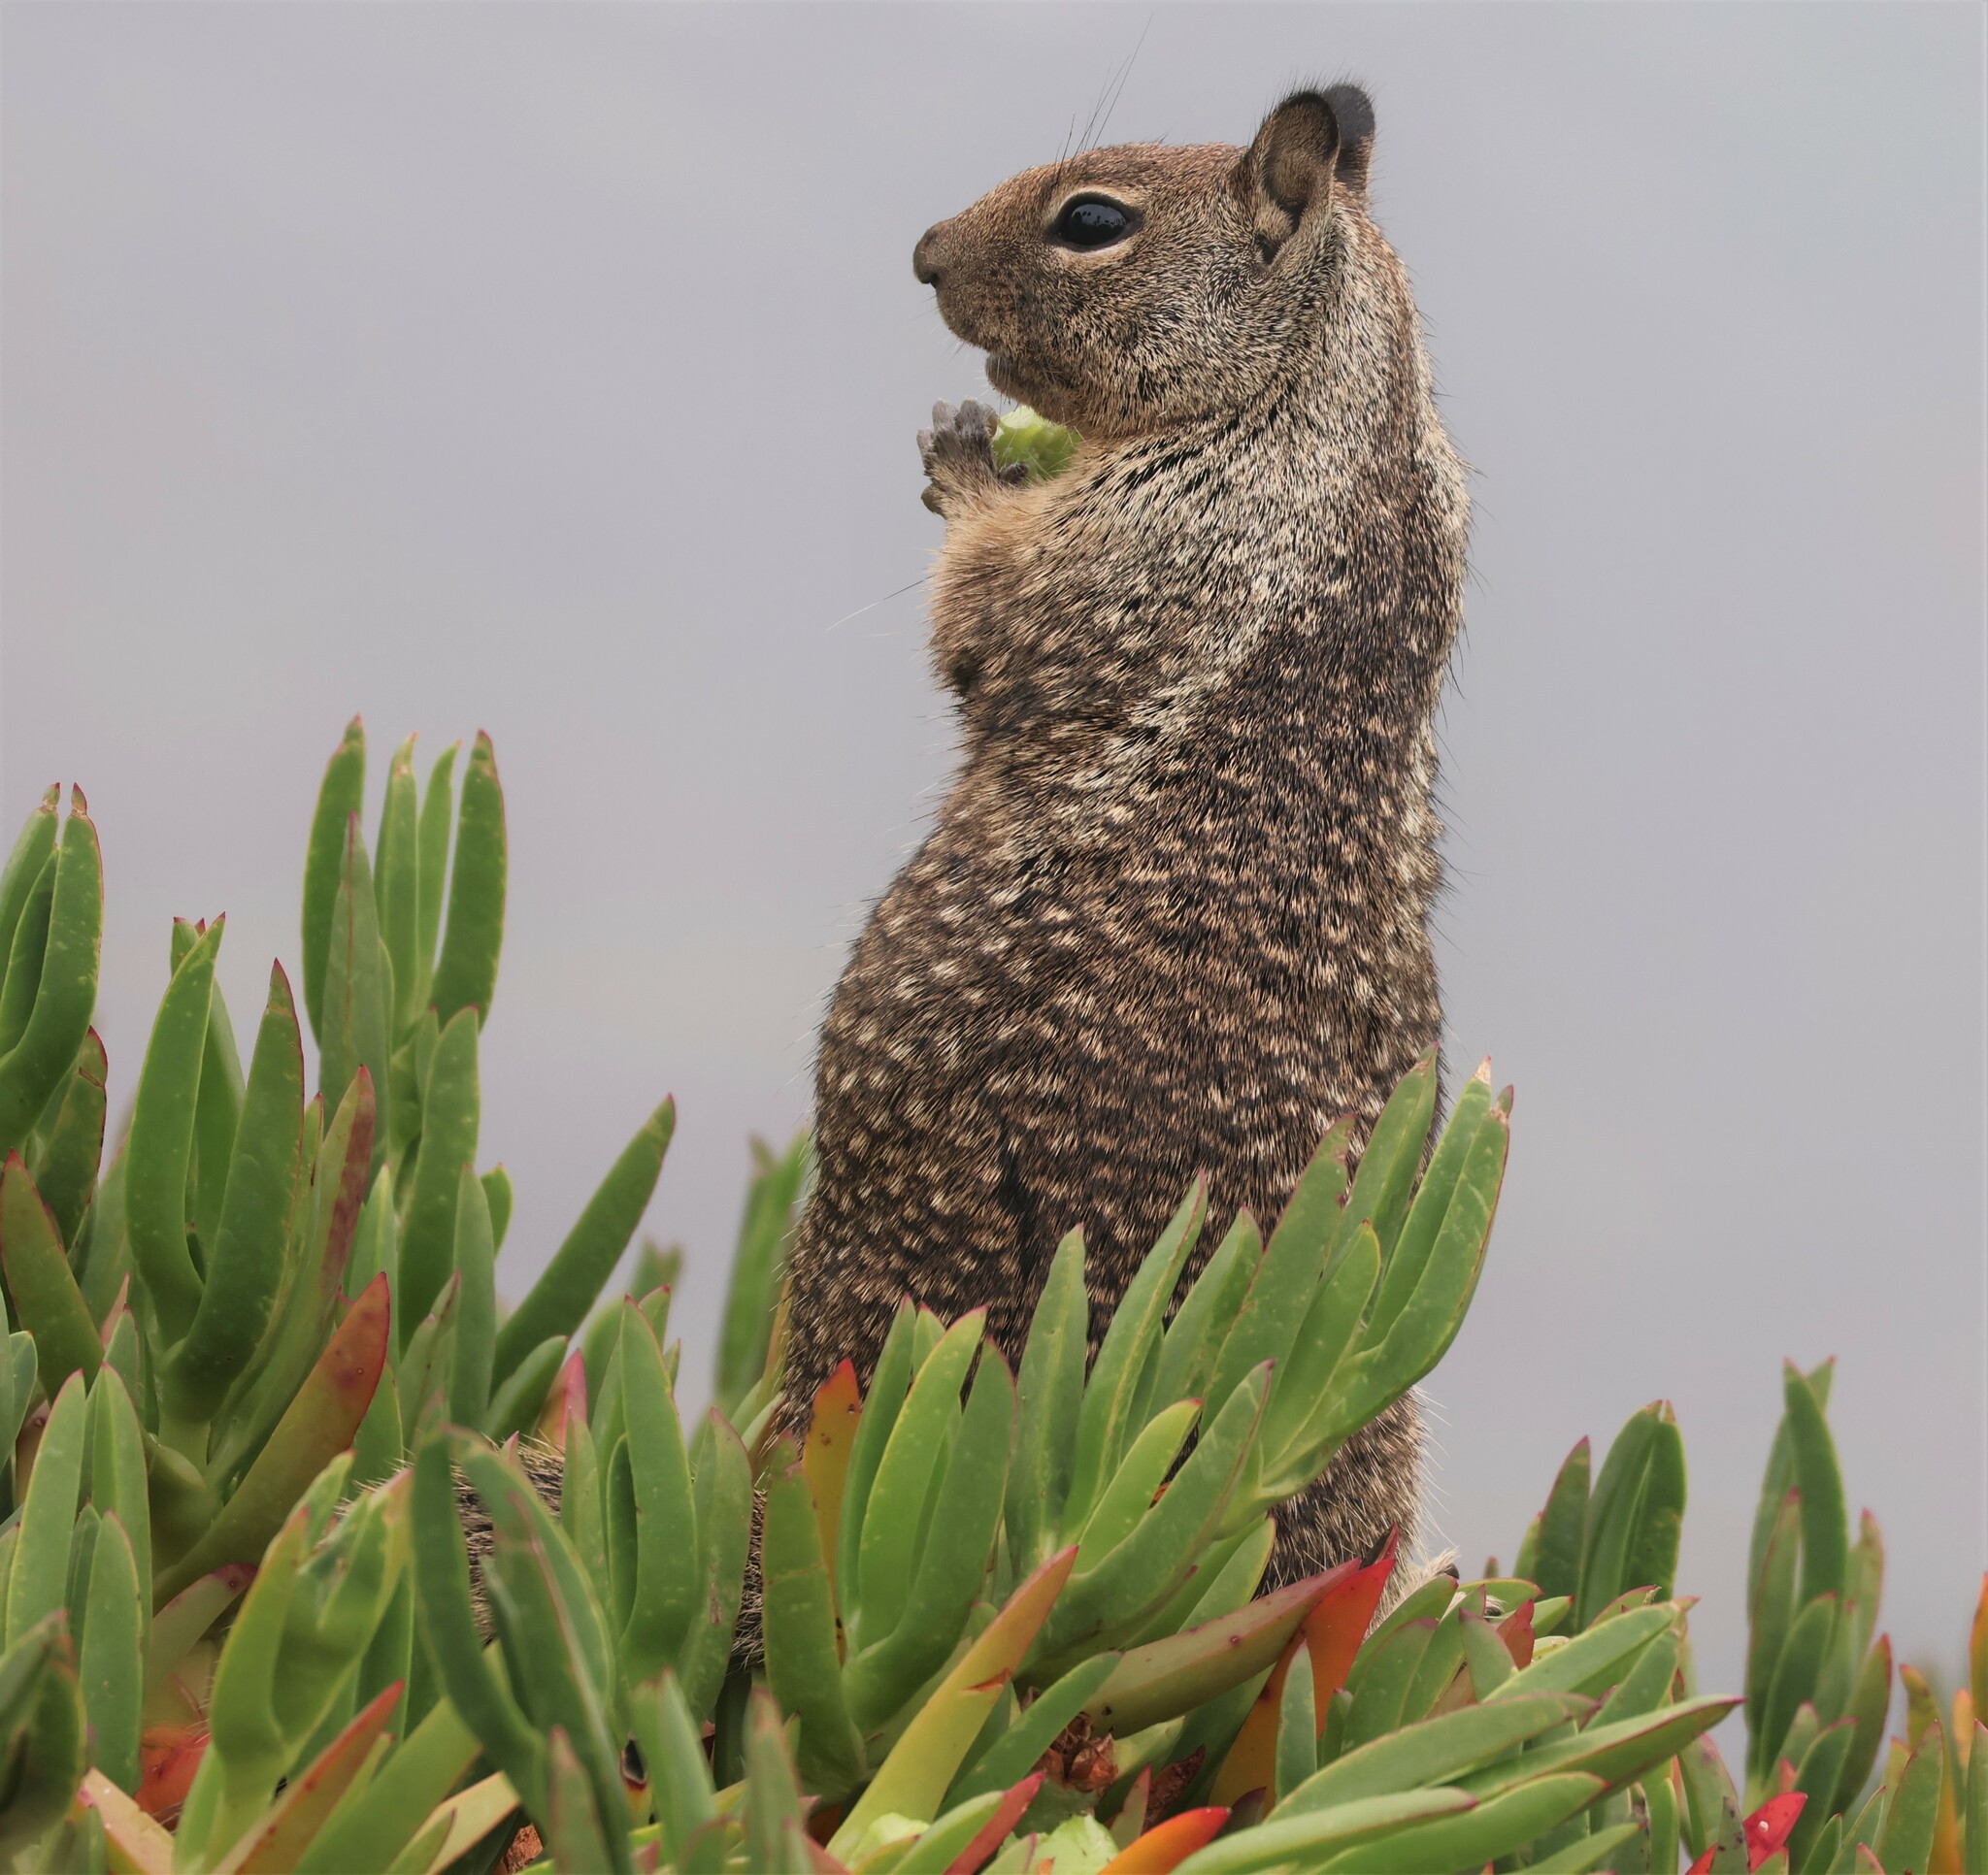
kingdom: Animalia
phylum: Chordata
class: Mammalia
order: Rodentia
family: Sciuridae
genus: Otospermophilus
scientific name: Otospermophilus beecheyi
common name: California ground squirrel
